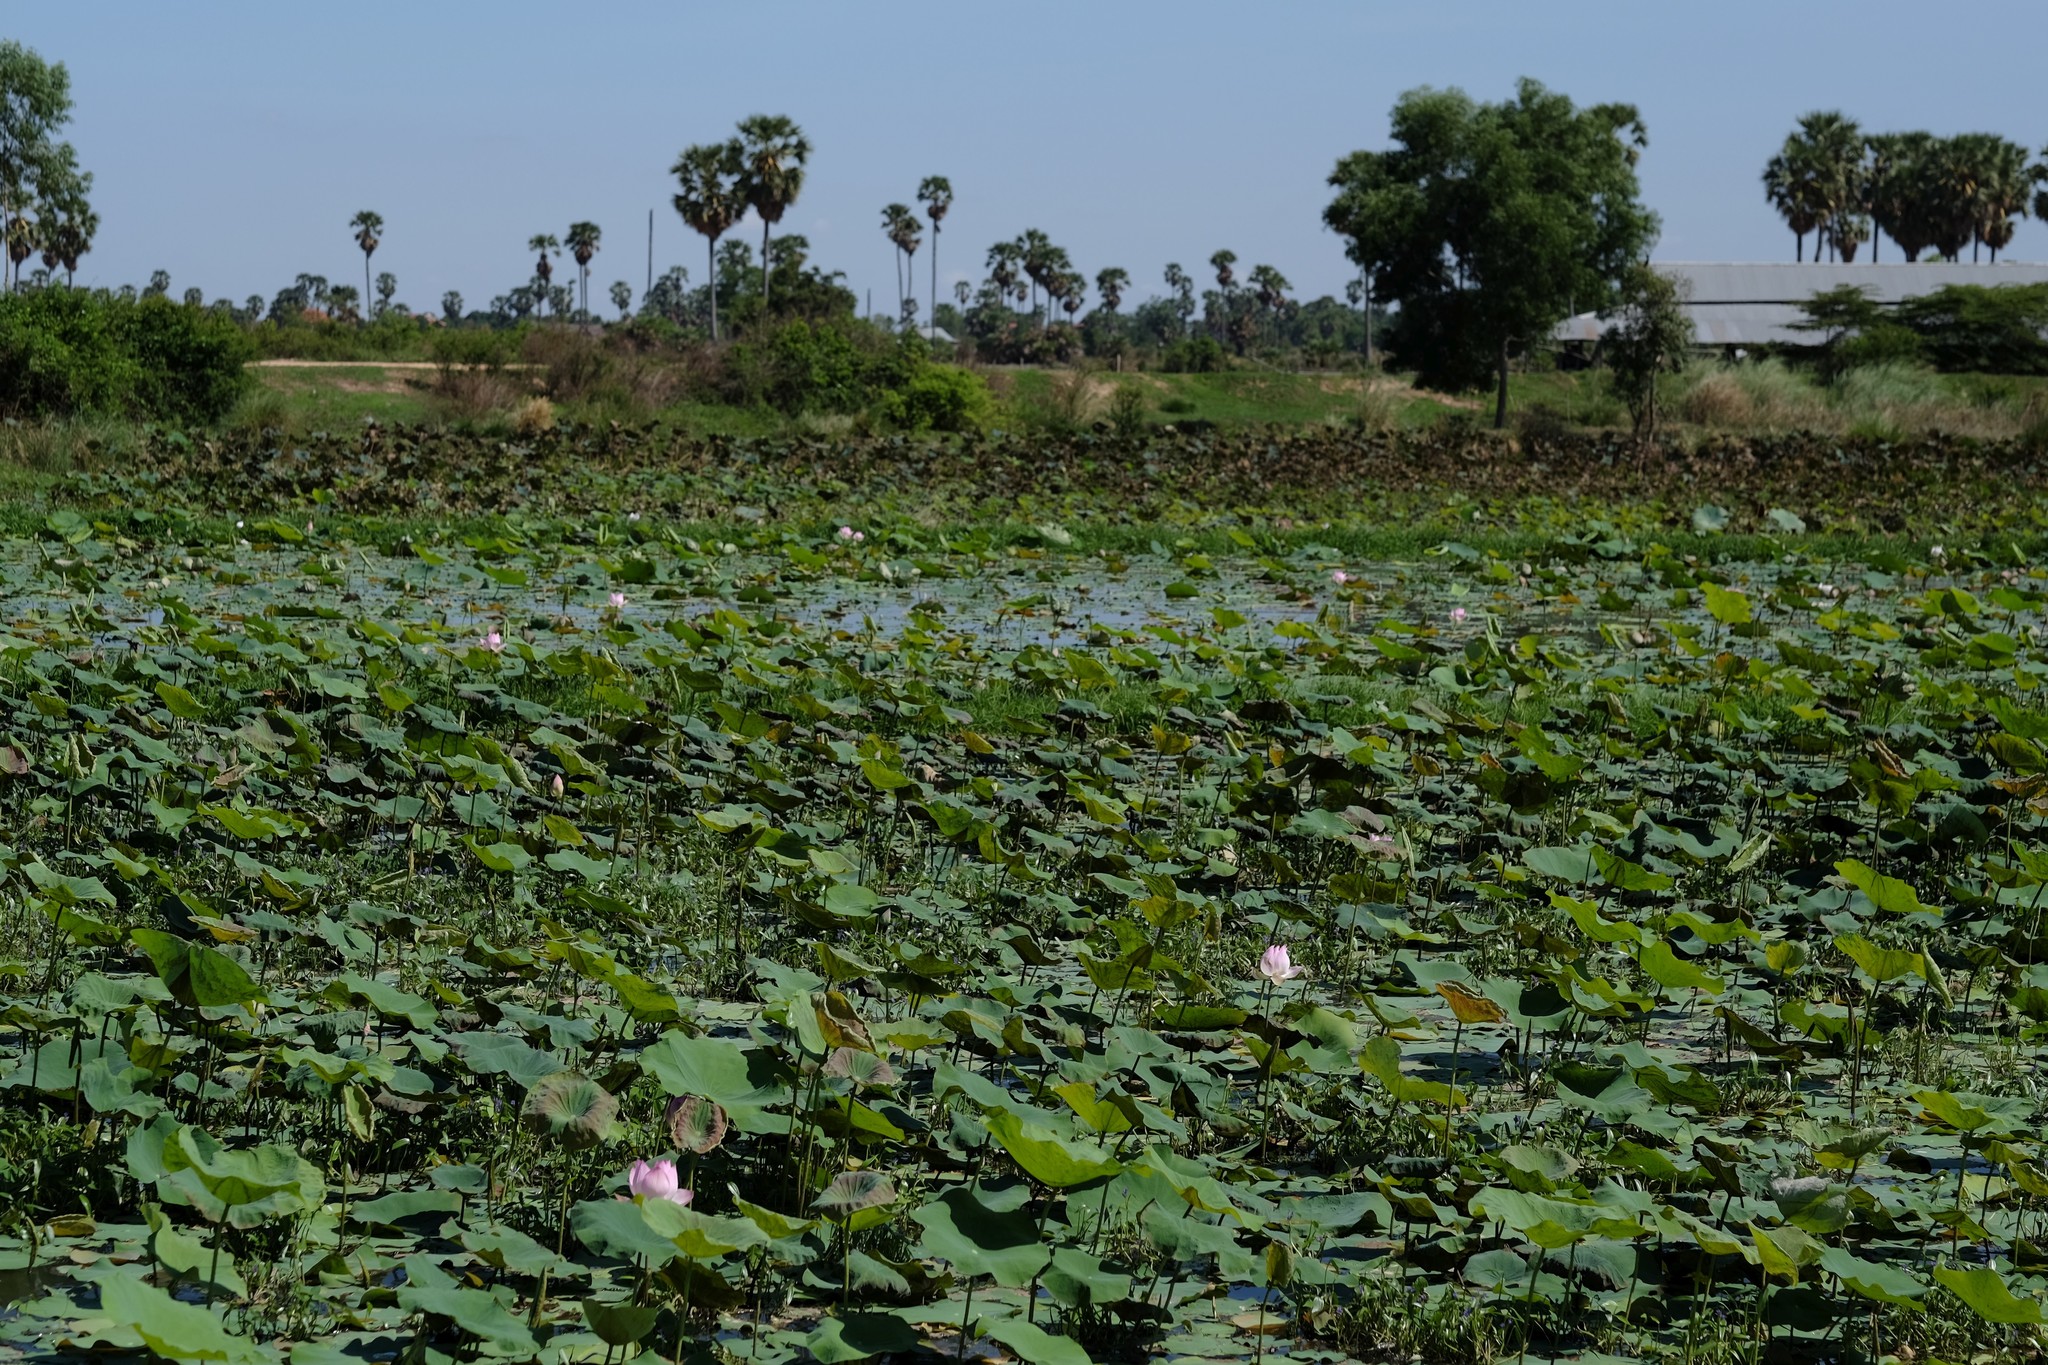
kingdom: Plantae
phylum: Tracheophyta
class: Magnoliopsida
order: Proteales
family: Nelumbonaceae
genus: Nelumbo
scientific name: Nelumbo nucifera
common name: Sacred lotus
